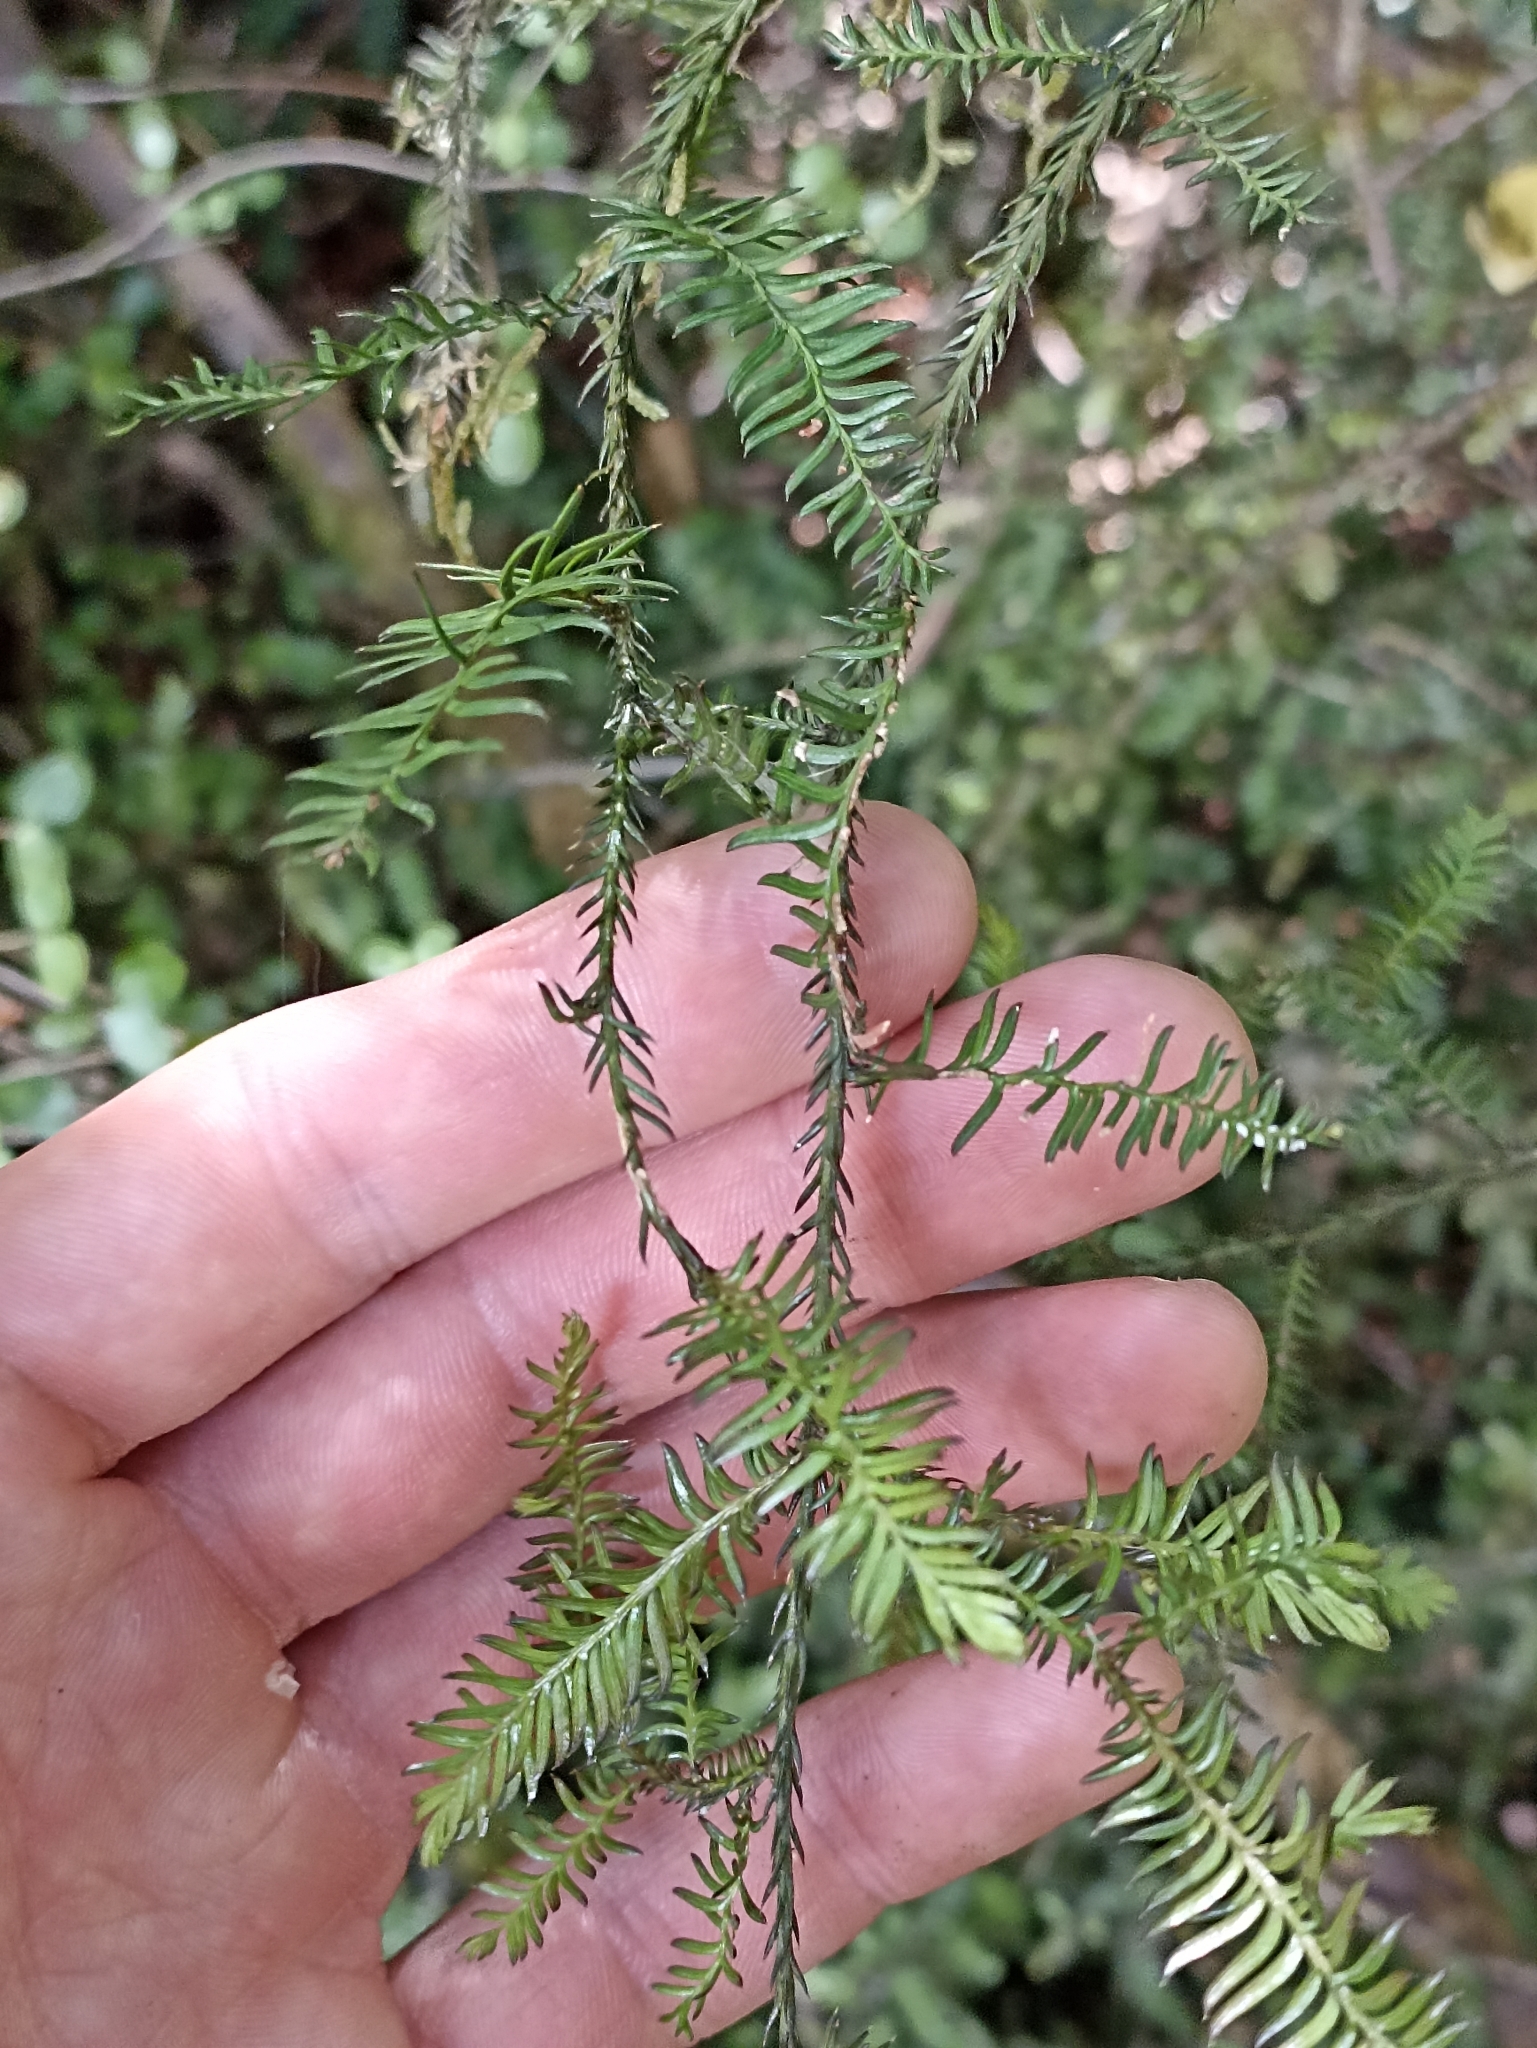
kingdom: Plantae
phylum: Tracheophyta
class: Pinopsida
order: Pinales
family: Podocarpaceae
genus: Dacrycarpus
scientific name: Dacrycarpus dacrydioides
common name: White pine
